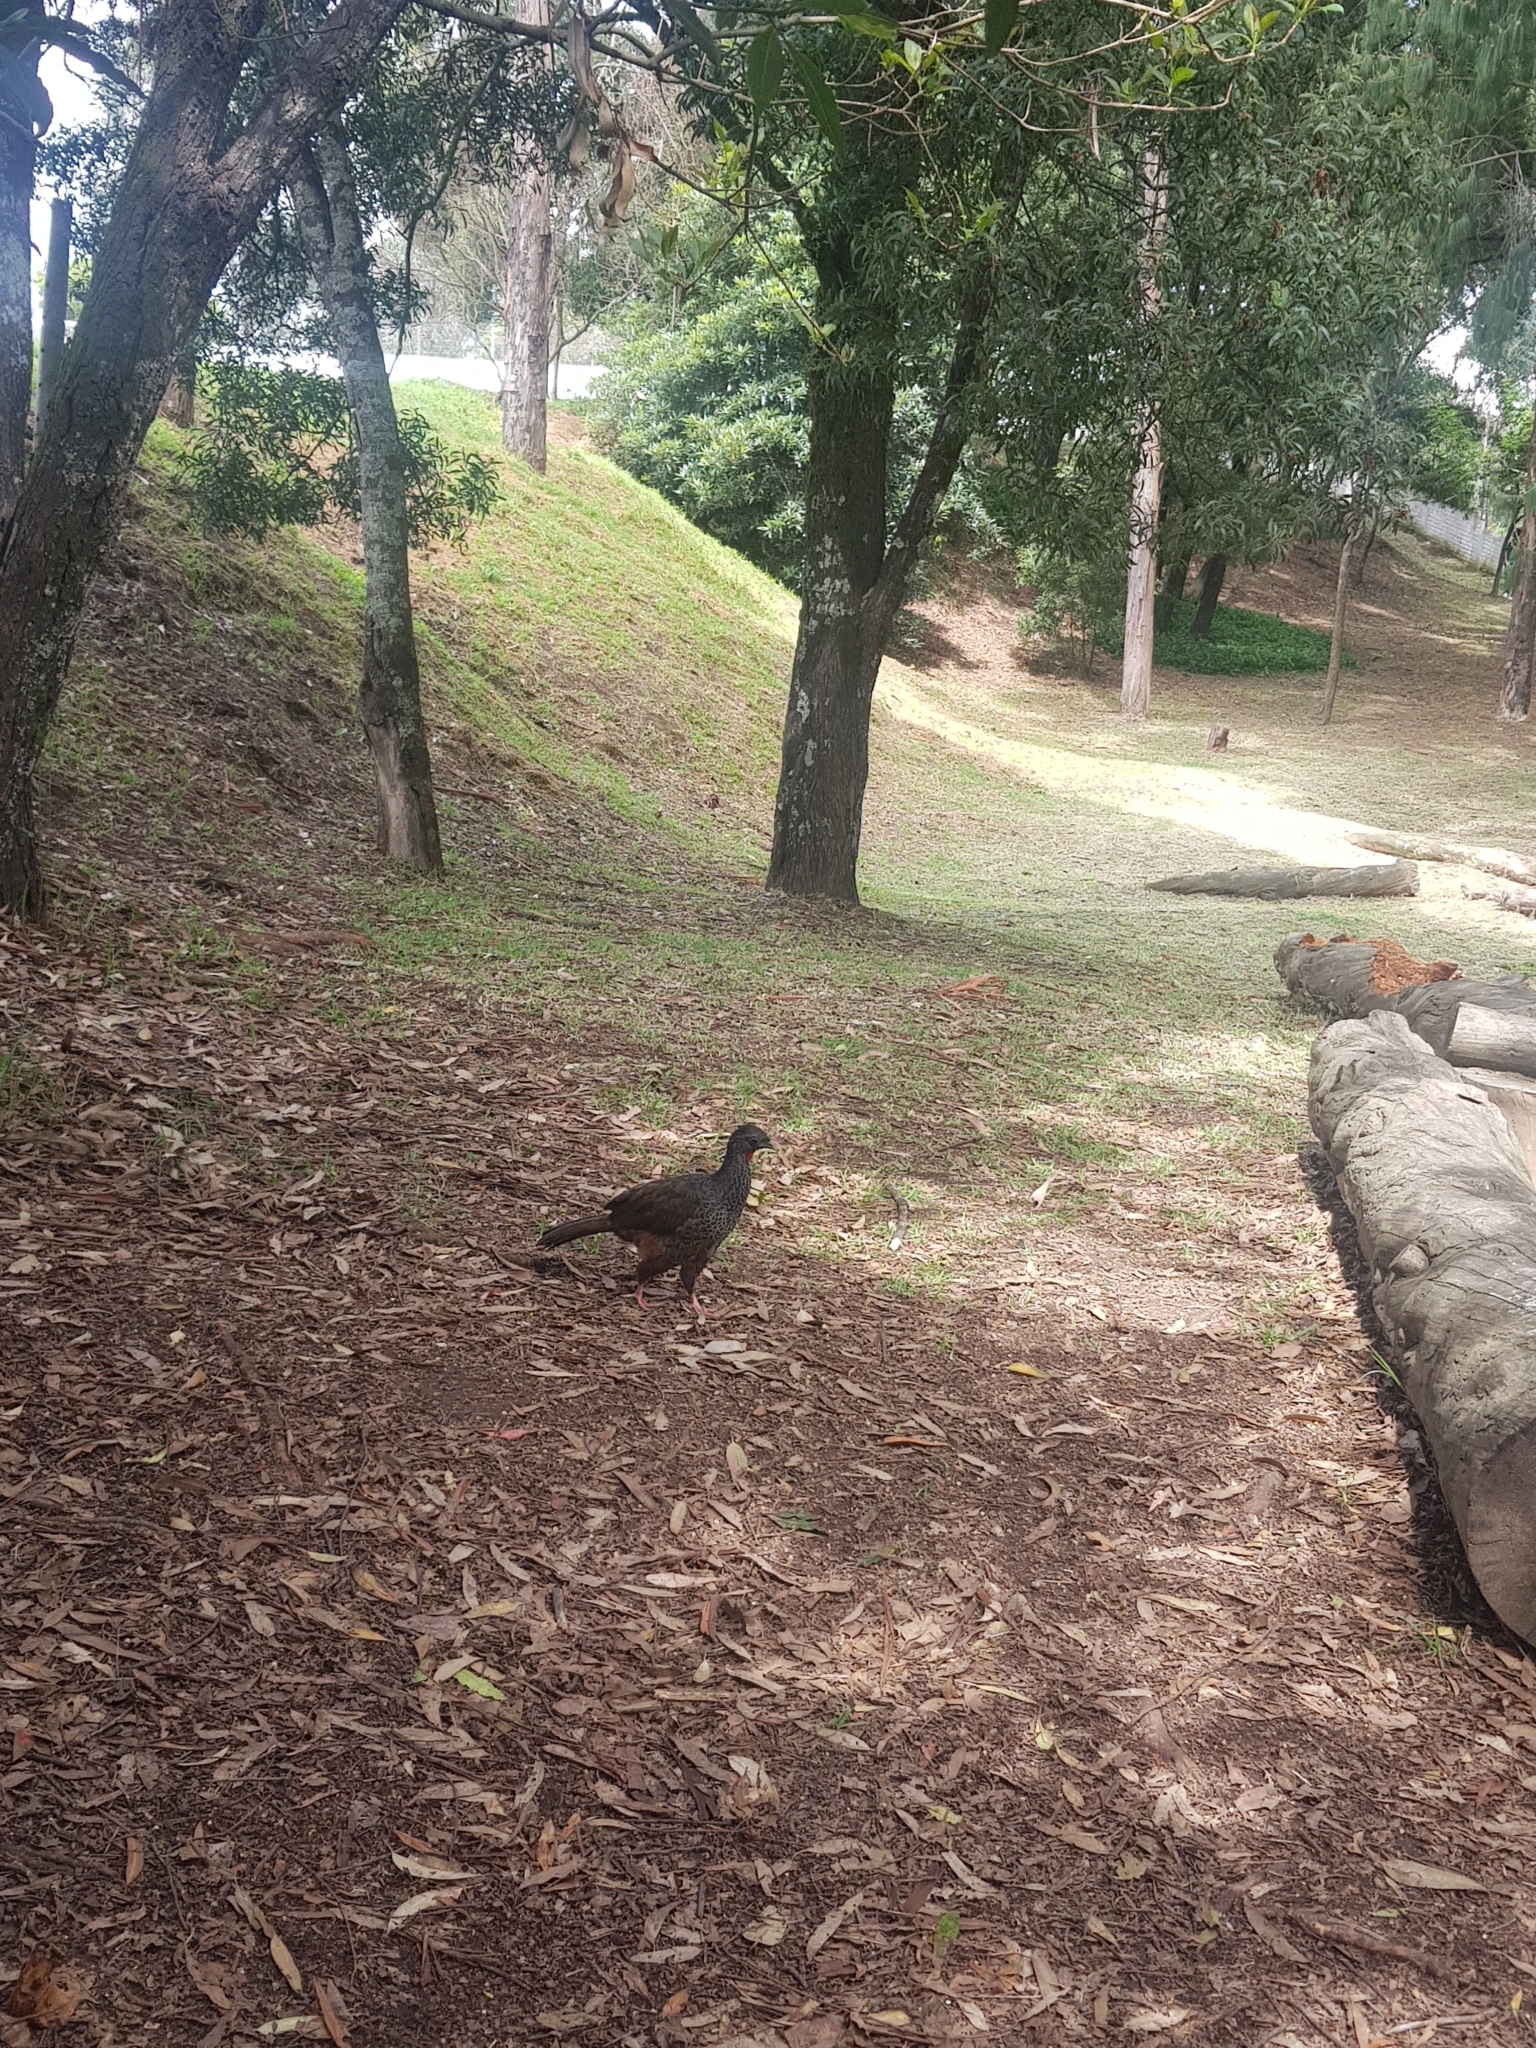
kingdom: Animalia
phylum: Chordata
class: Aves
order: Galliformes
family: Cracidae
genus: Penelope
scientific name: Penelope montagnii
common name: Andean guan
